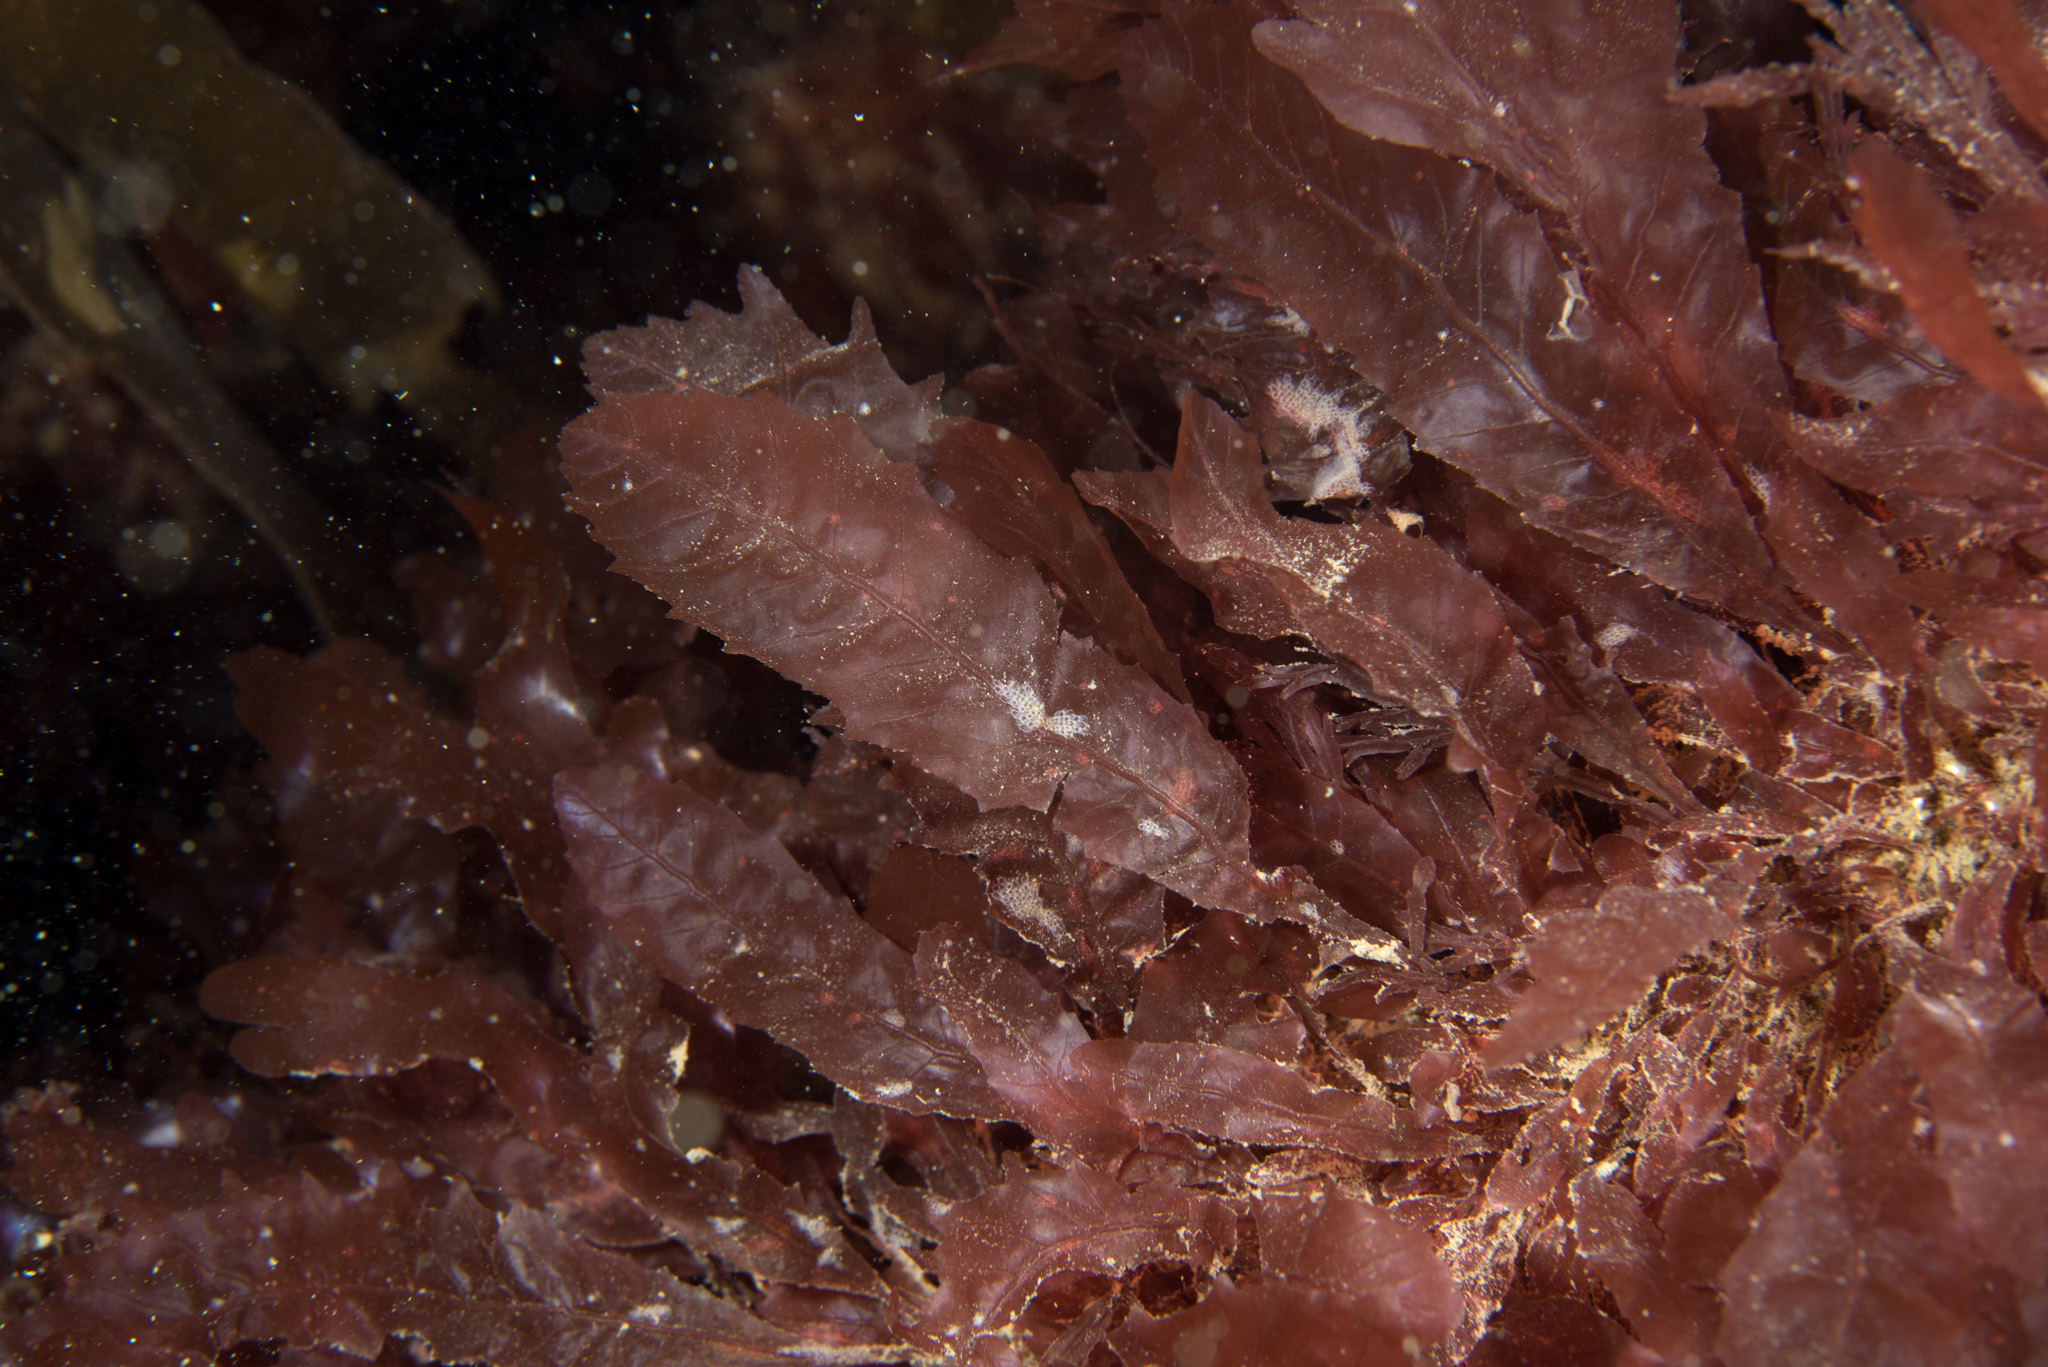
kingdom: Plantae
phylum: Rhodophyta
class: Florideophyceae
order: Ceramiales
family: Delesseriaceae
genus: Phycodrys
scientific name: Phycodrys rubens
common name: Sea oak
